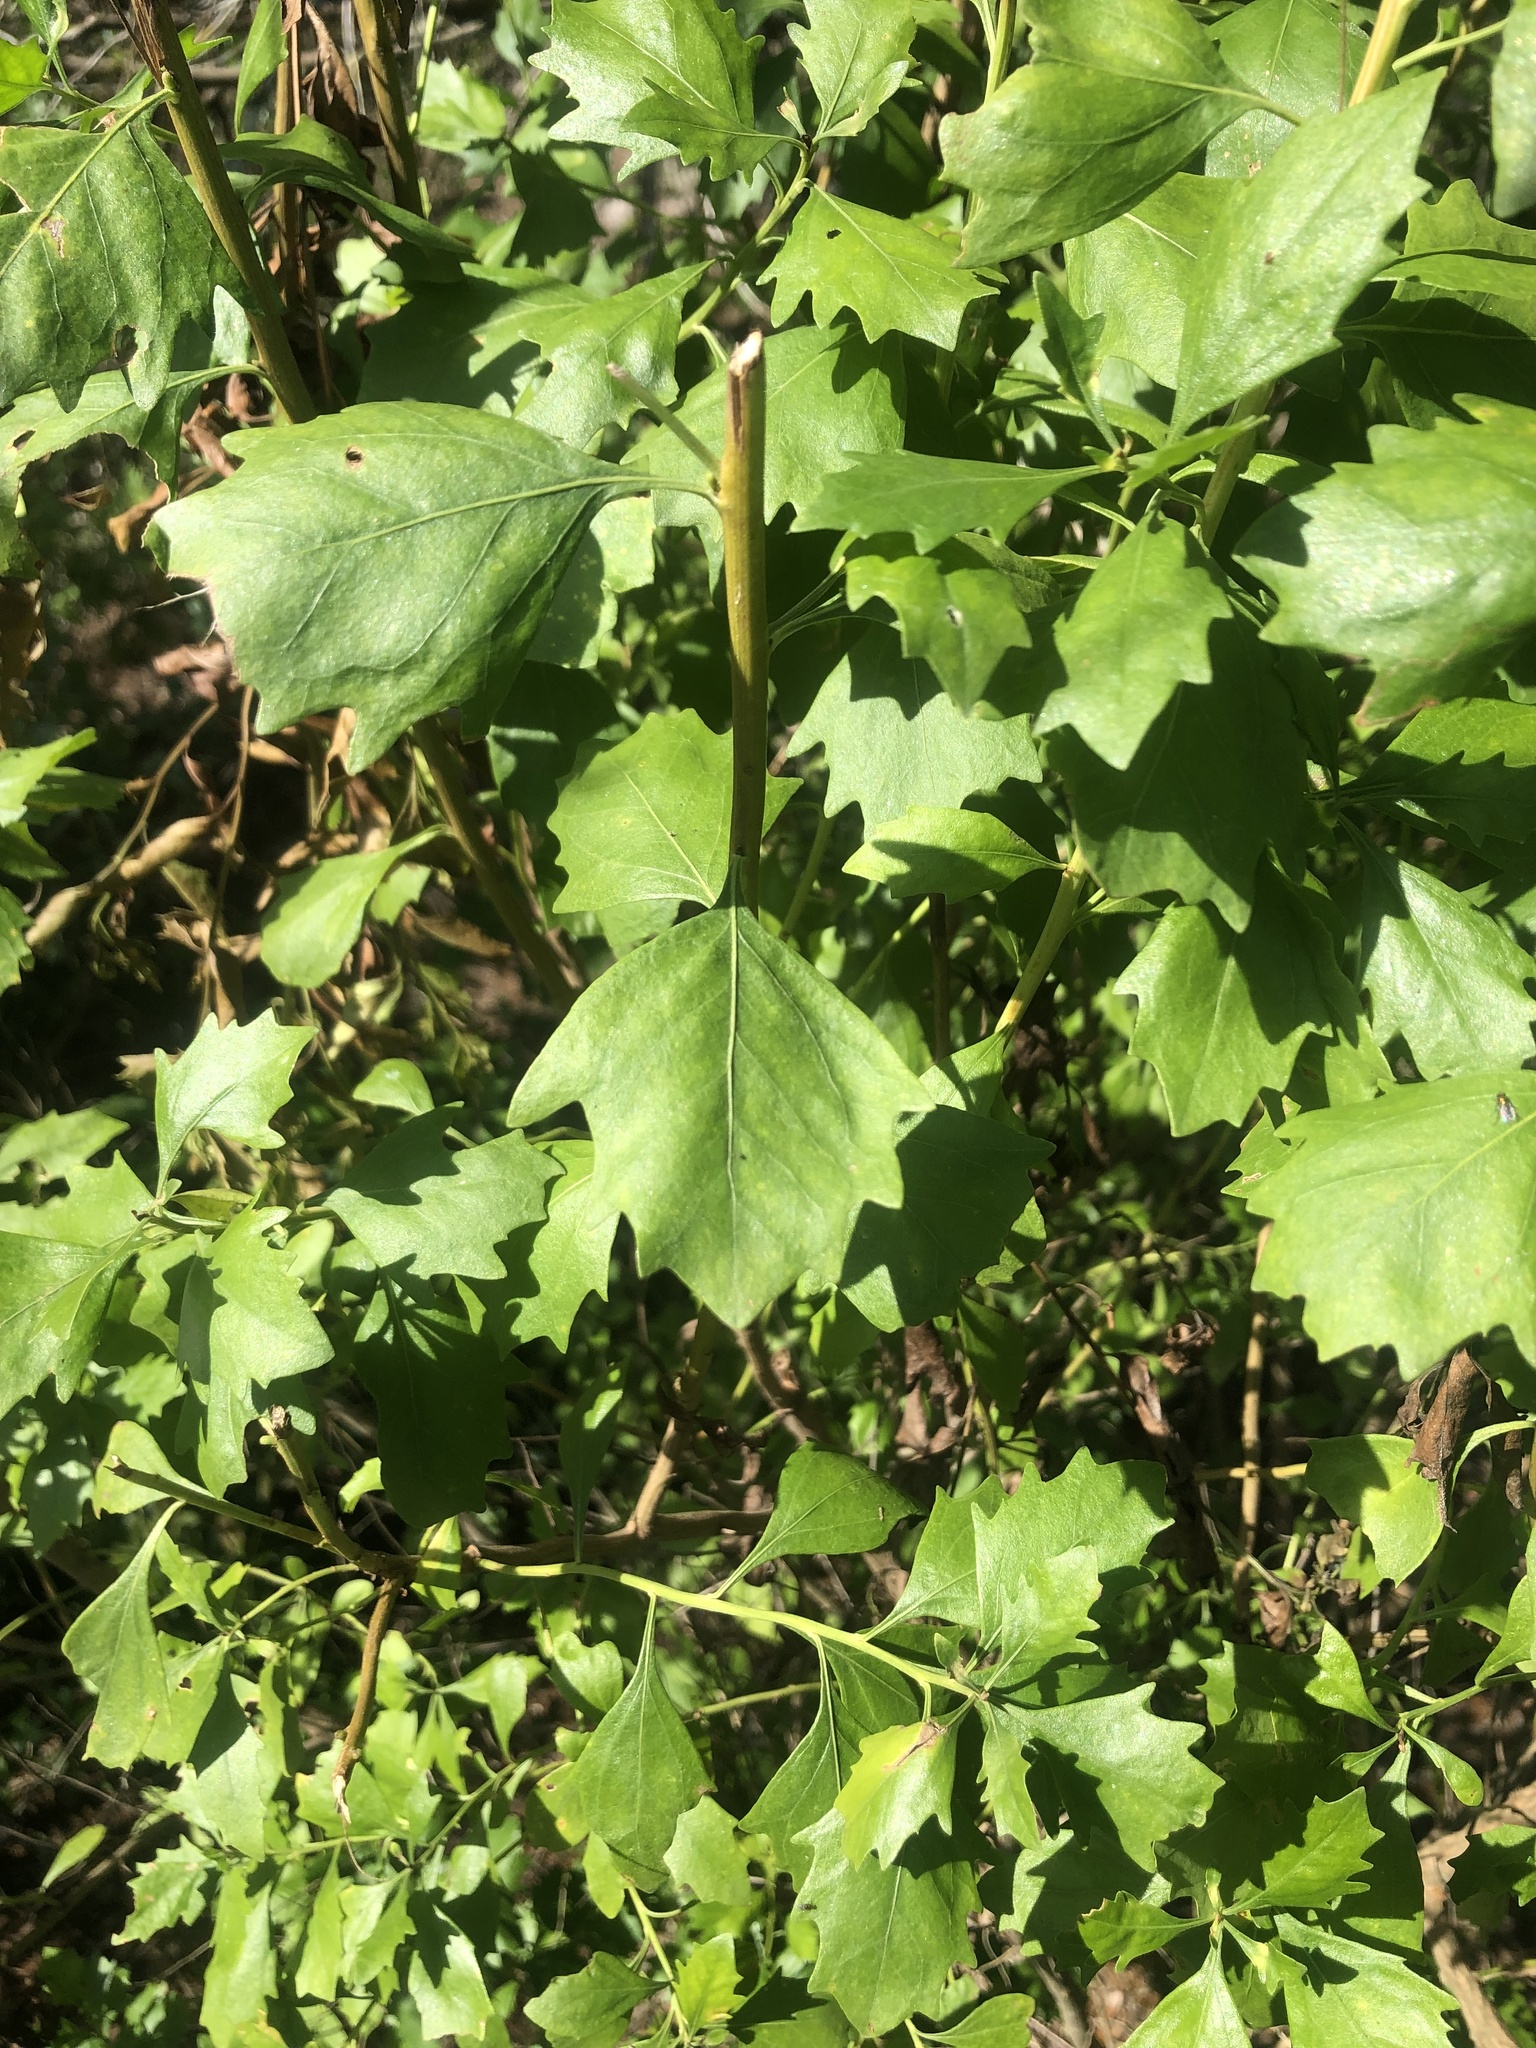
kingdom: Plantae
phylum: Tracheophyta
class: Magnoliopsida
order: Asterales
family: Asteraceae
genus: Baccharis
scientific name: Baccharis halimifolia
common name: Eastern baccharis
